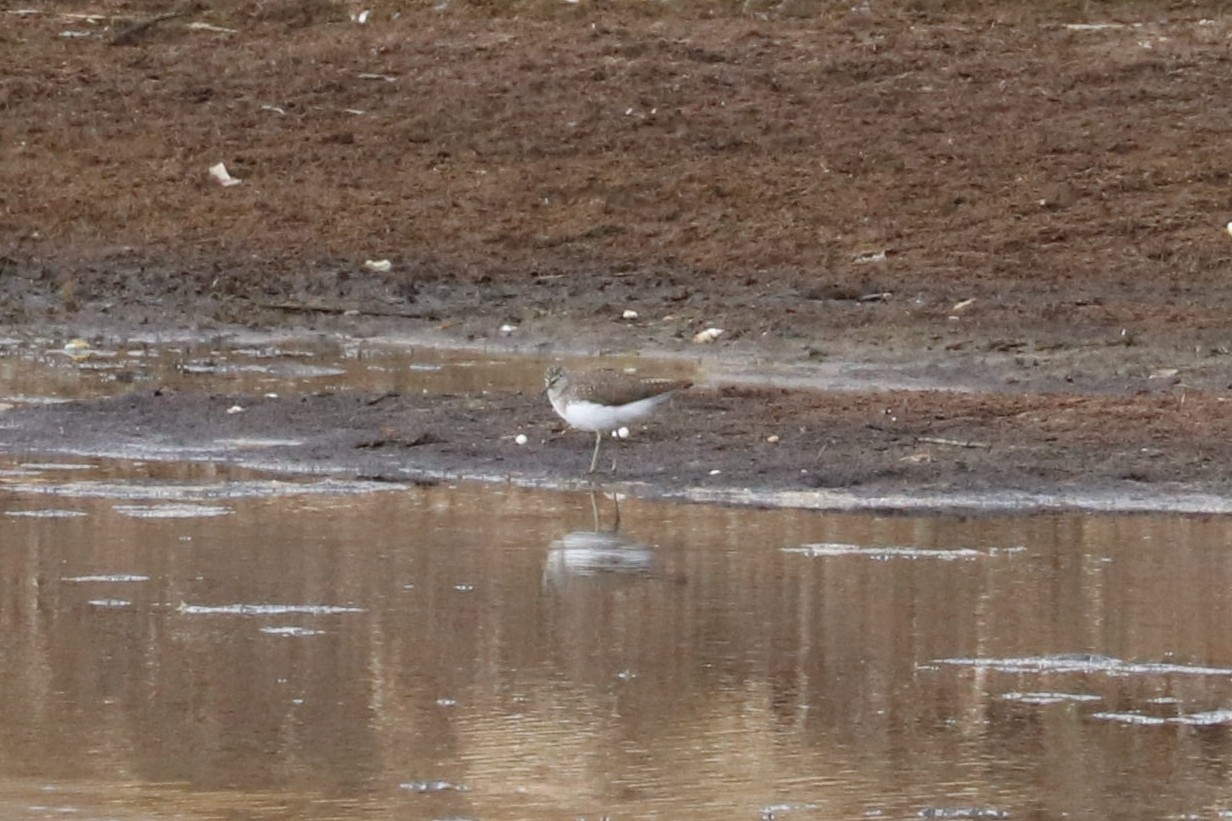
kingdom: Animalia
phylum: Chordata
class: Aves
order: Charadriiformes
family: Scolopacidae
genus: Tringa
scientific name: Tringa ochropus
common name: Green sandpiper
